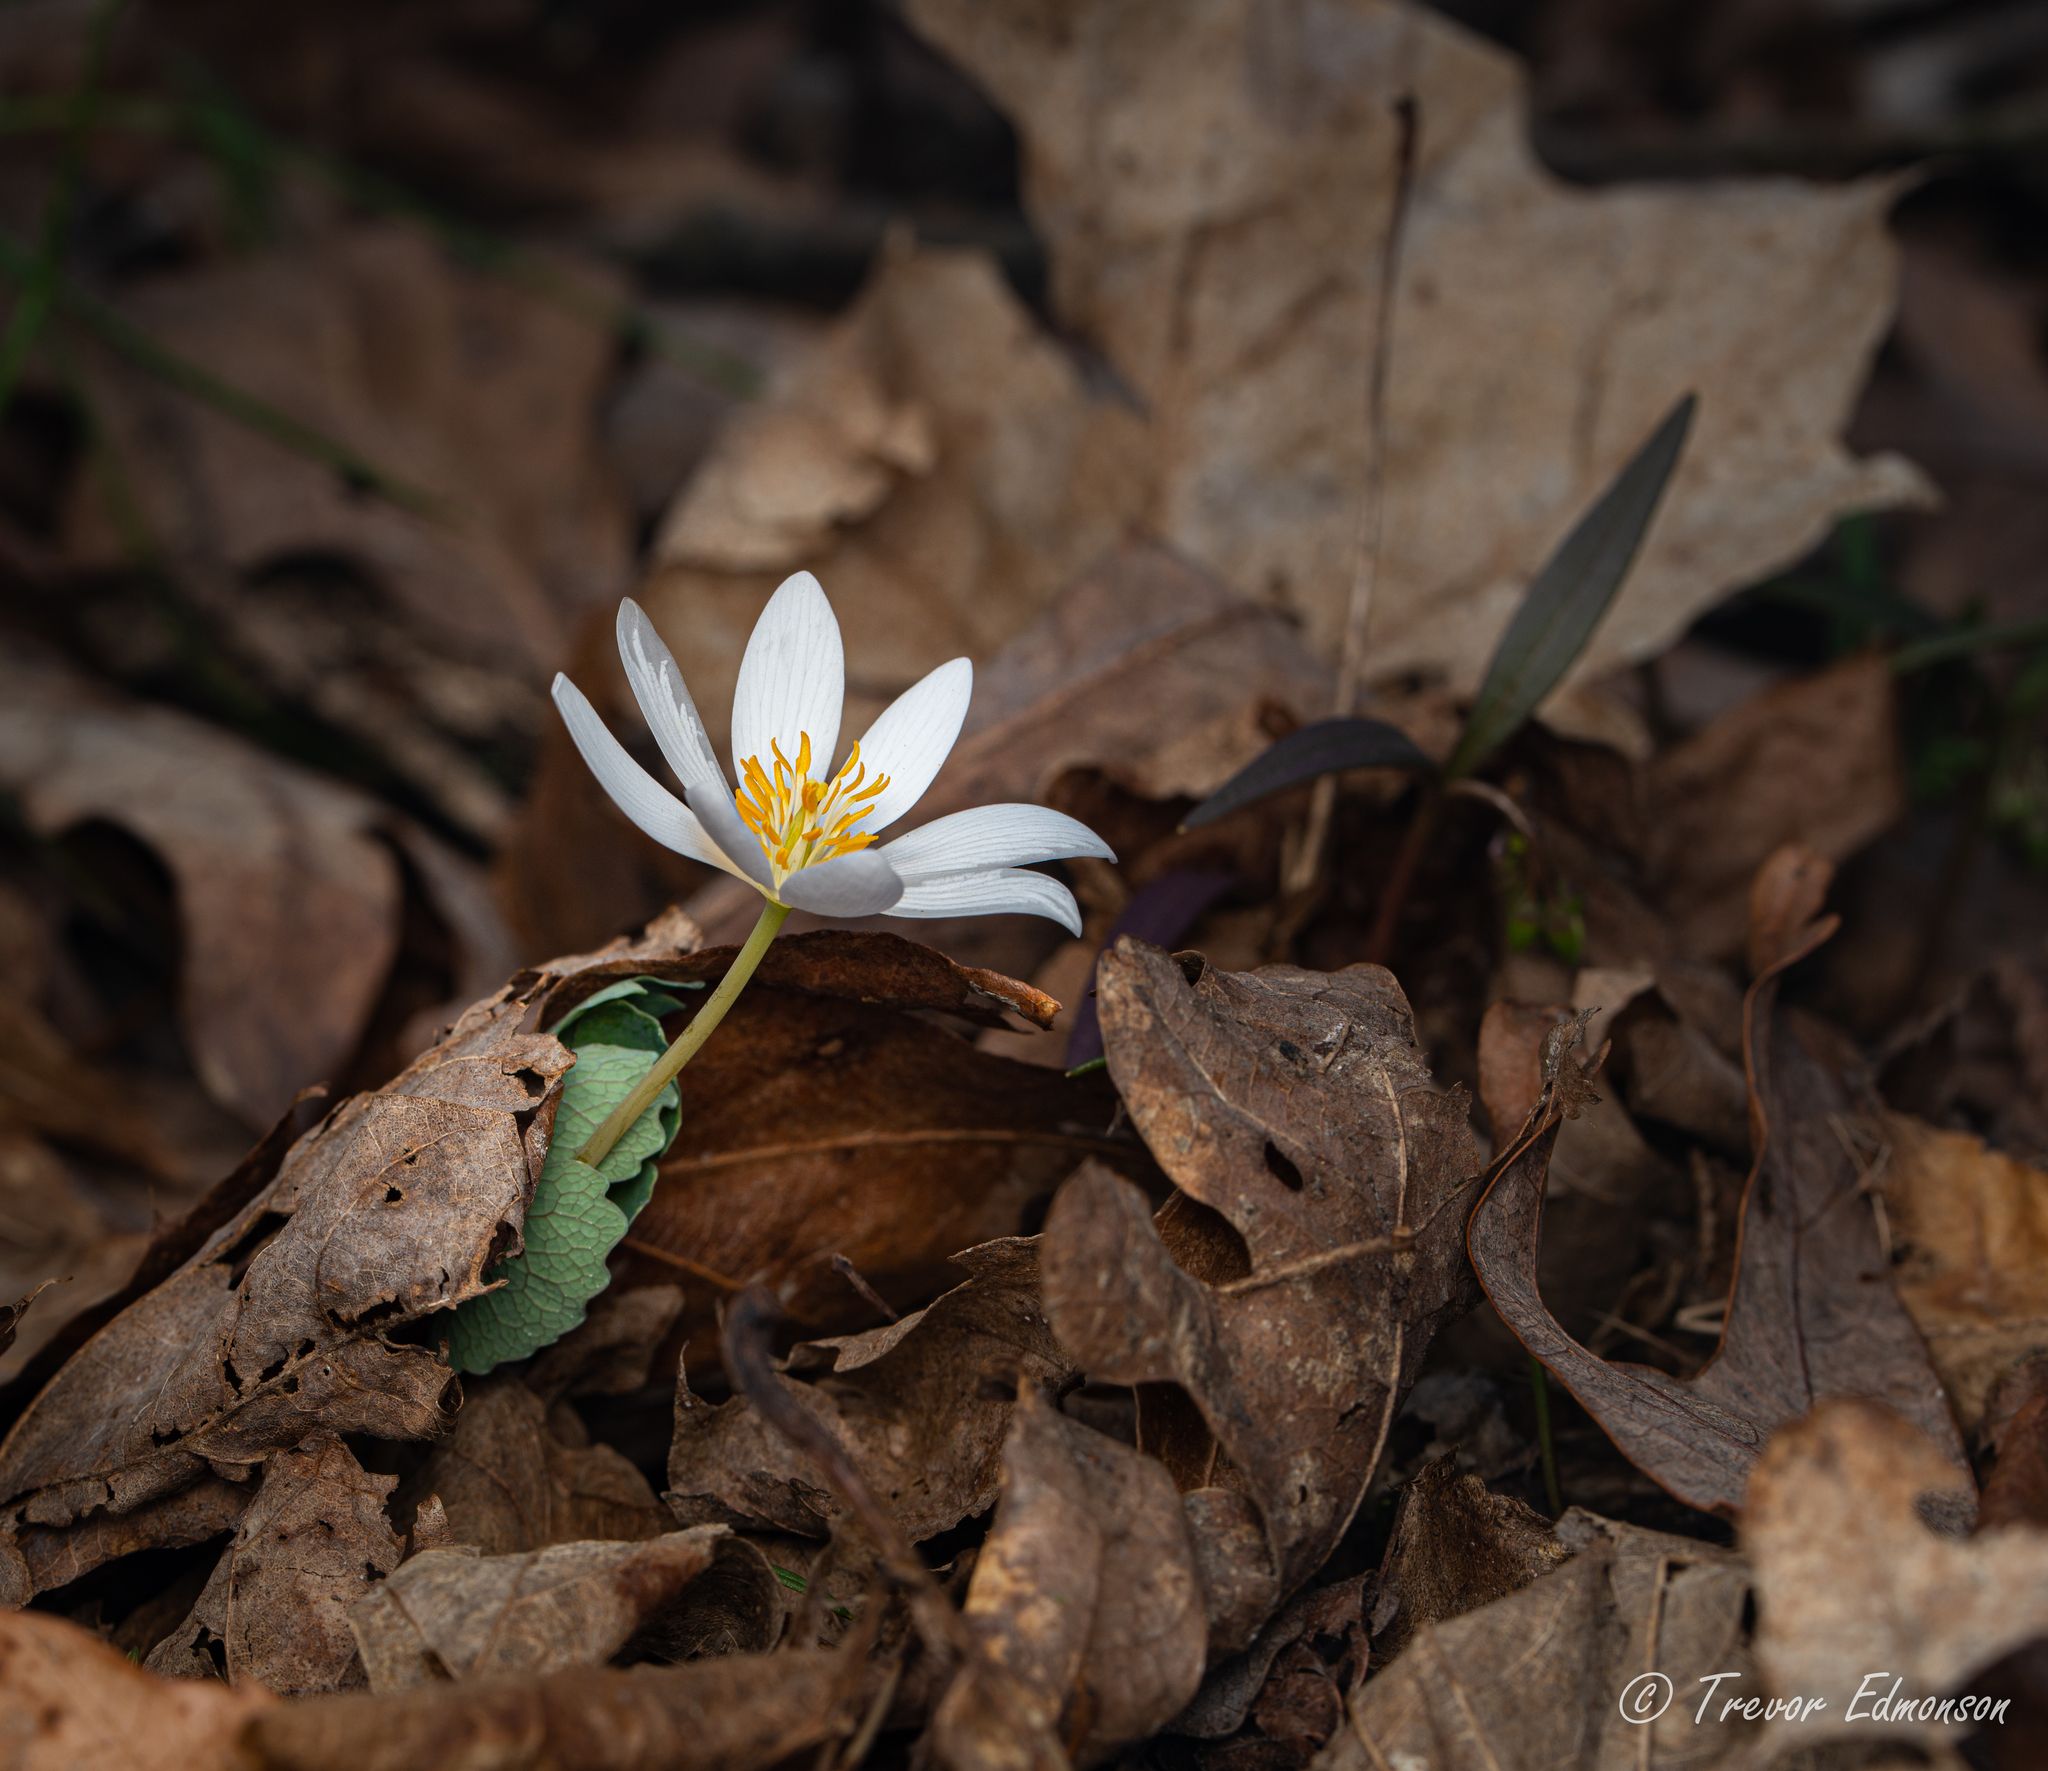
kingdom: Plantae
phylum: Tracheophyta
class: Magnoliopsida
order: Ranunculales
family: Papaveraceae
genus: Sanguinaria
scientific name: Sanguinaria canadensis
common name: Bloodroot
